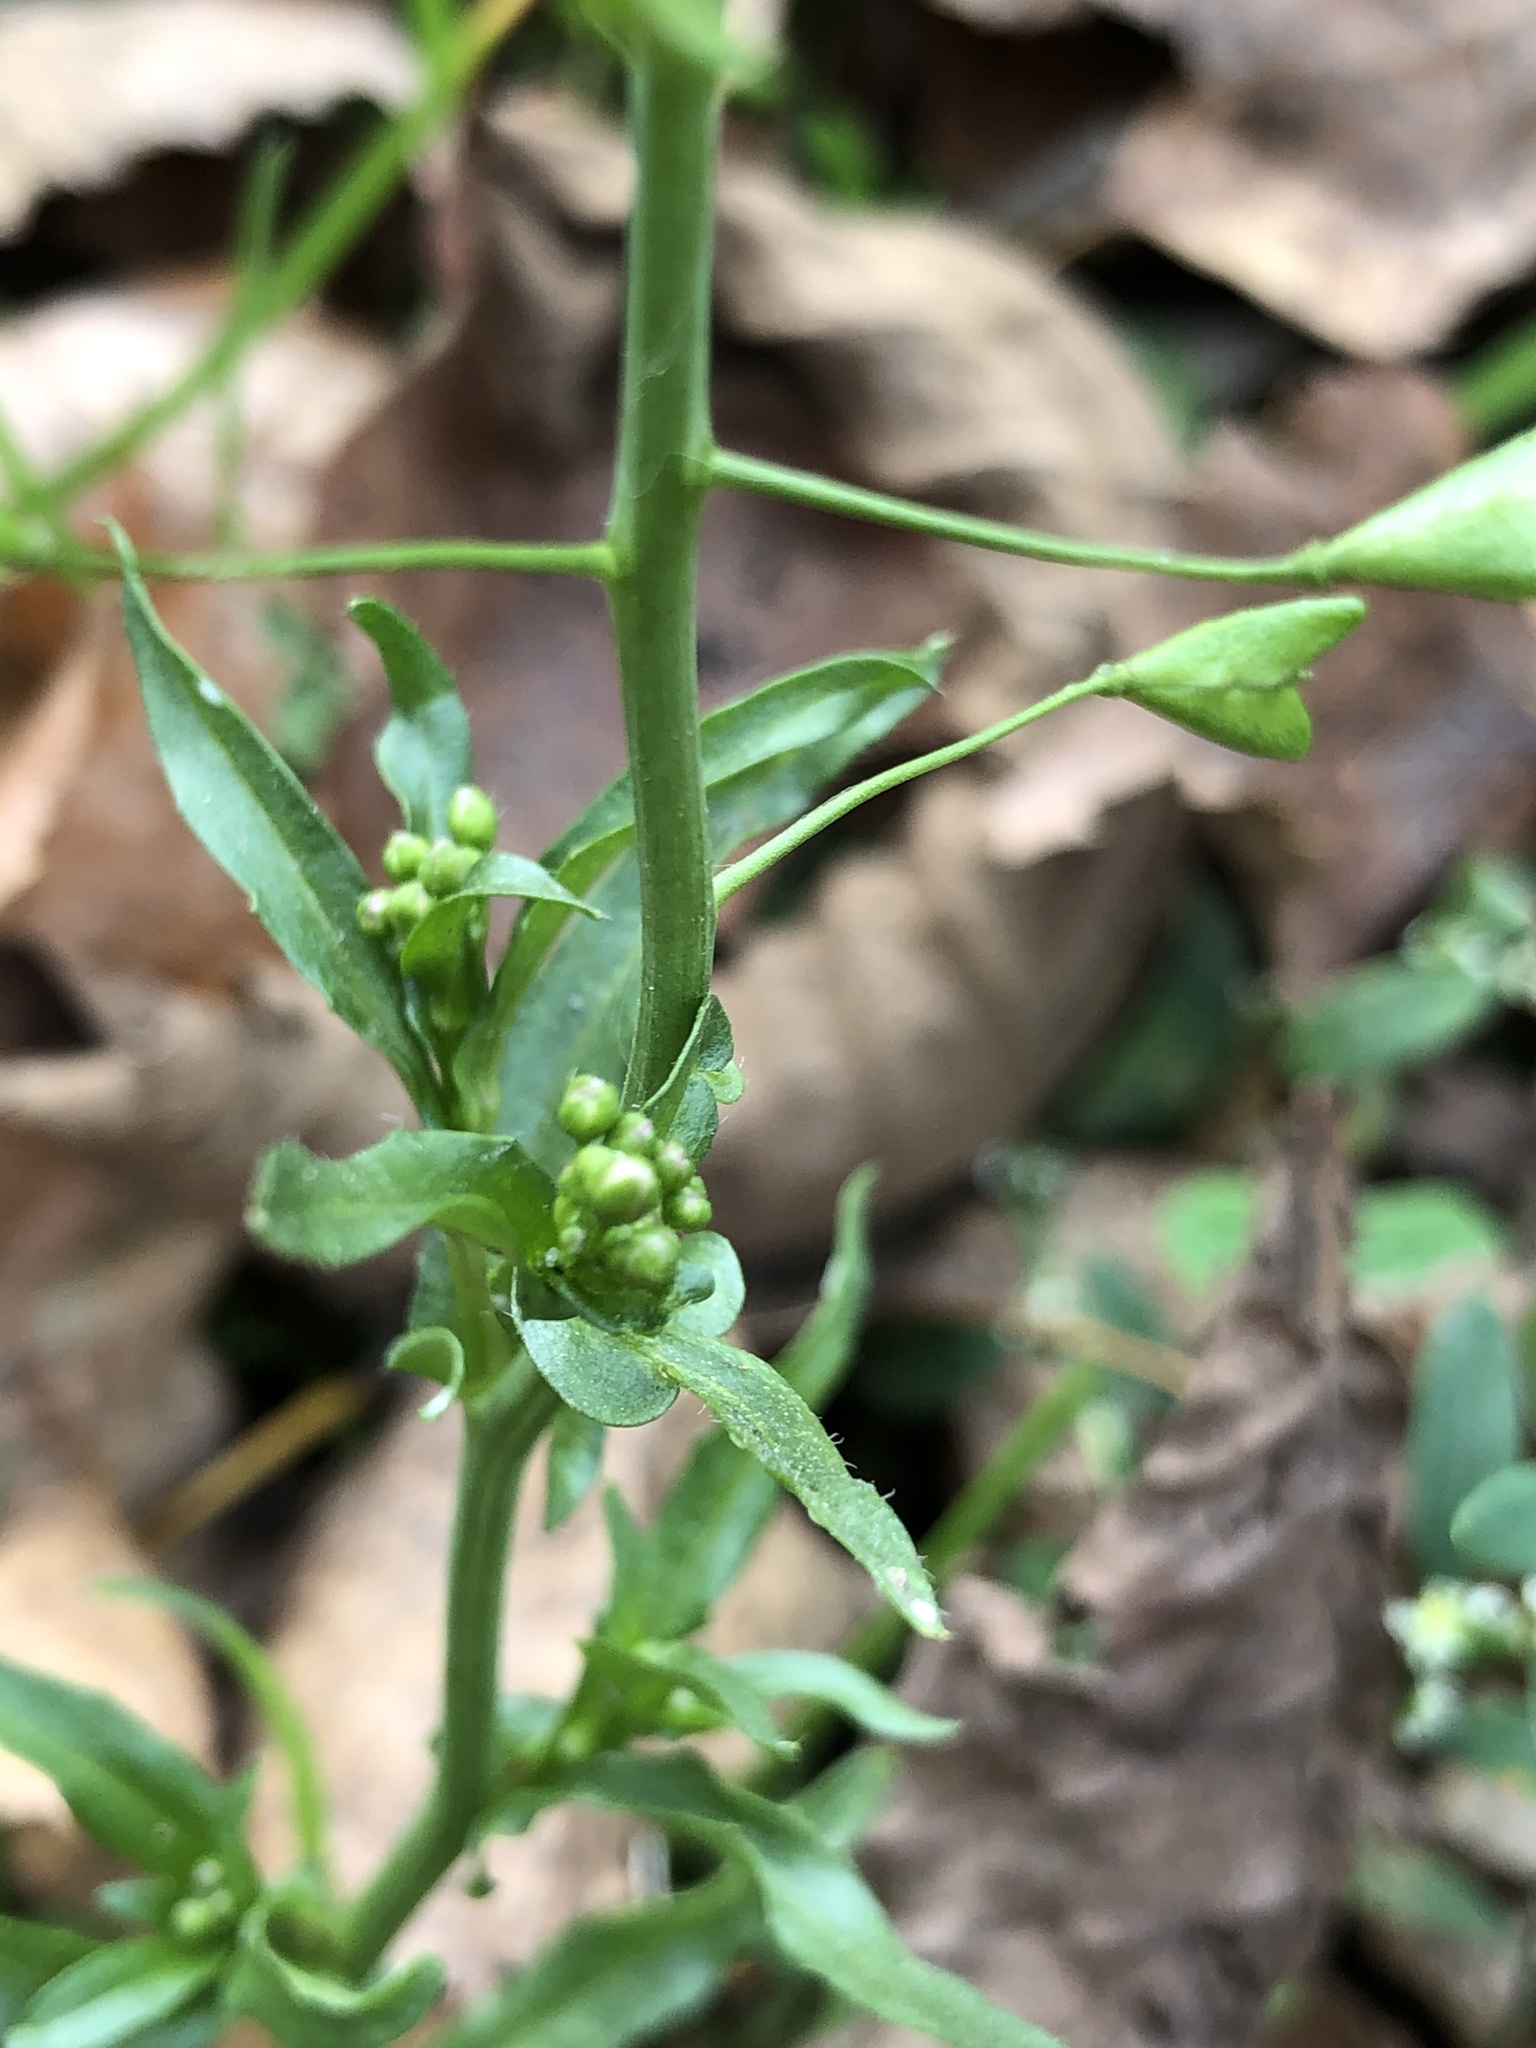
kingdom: Plantae
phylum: Tracheophyta
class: Magnoliopsida
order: Brassicales
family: Brassicaceae
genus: Capsella
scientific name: Capsella bursa-pastoris
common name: Shepherd's purse
